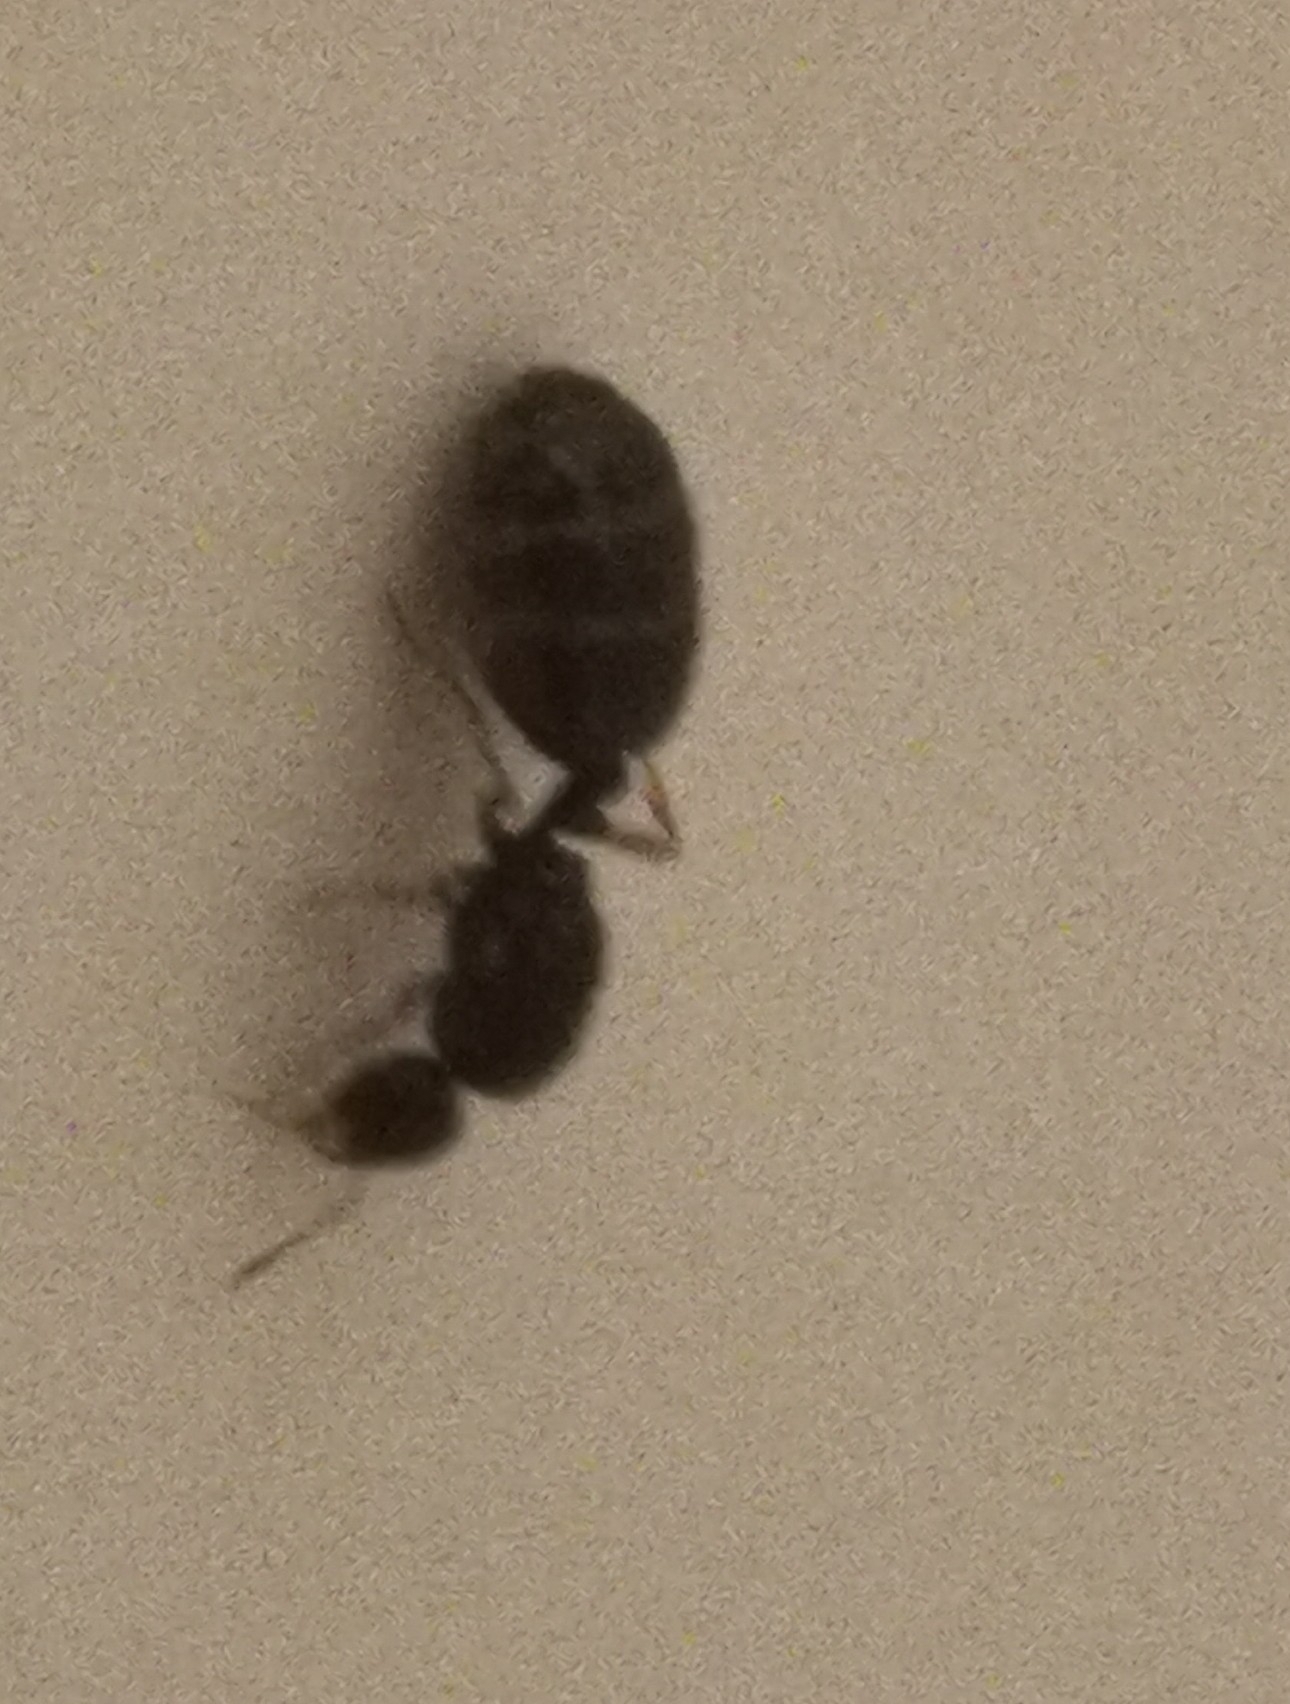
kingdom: Animalia
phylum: Arthropoda
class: Insecta
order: Hymenoptera
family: Formicidae
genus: Solenopsis
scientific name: Solenopsis fugax
